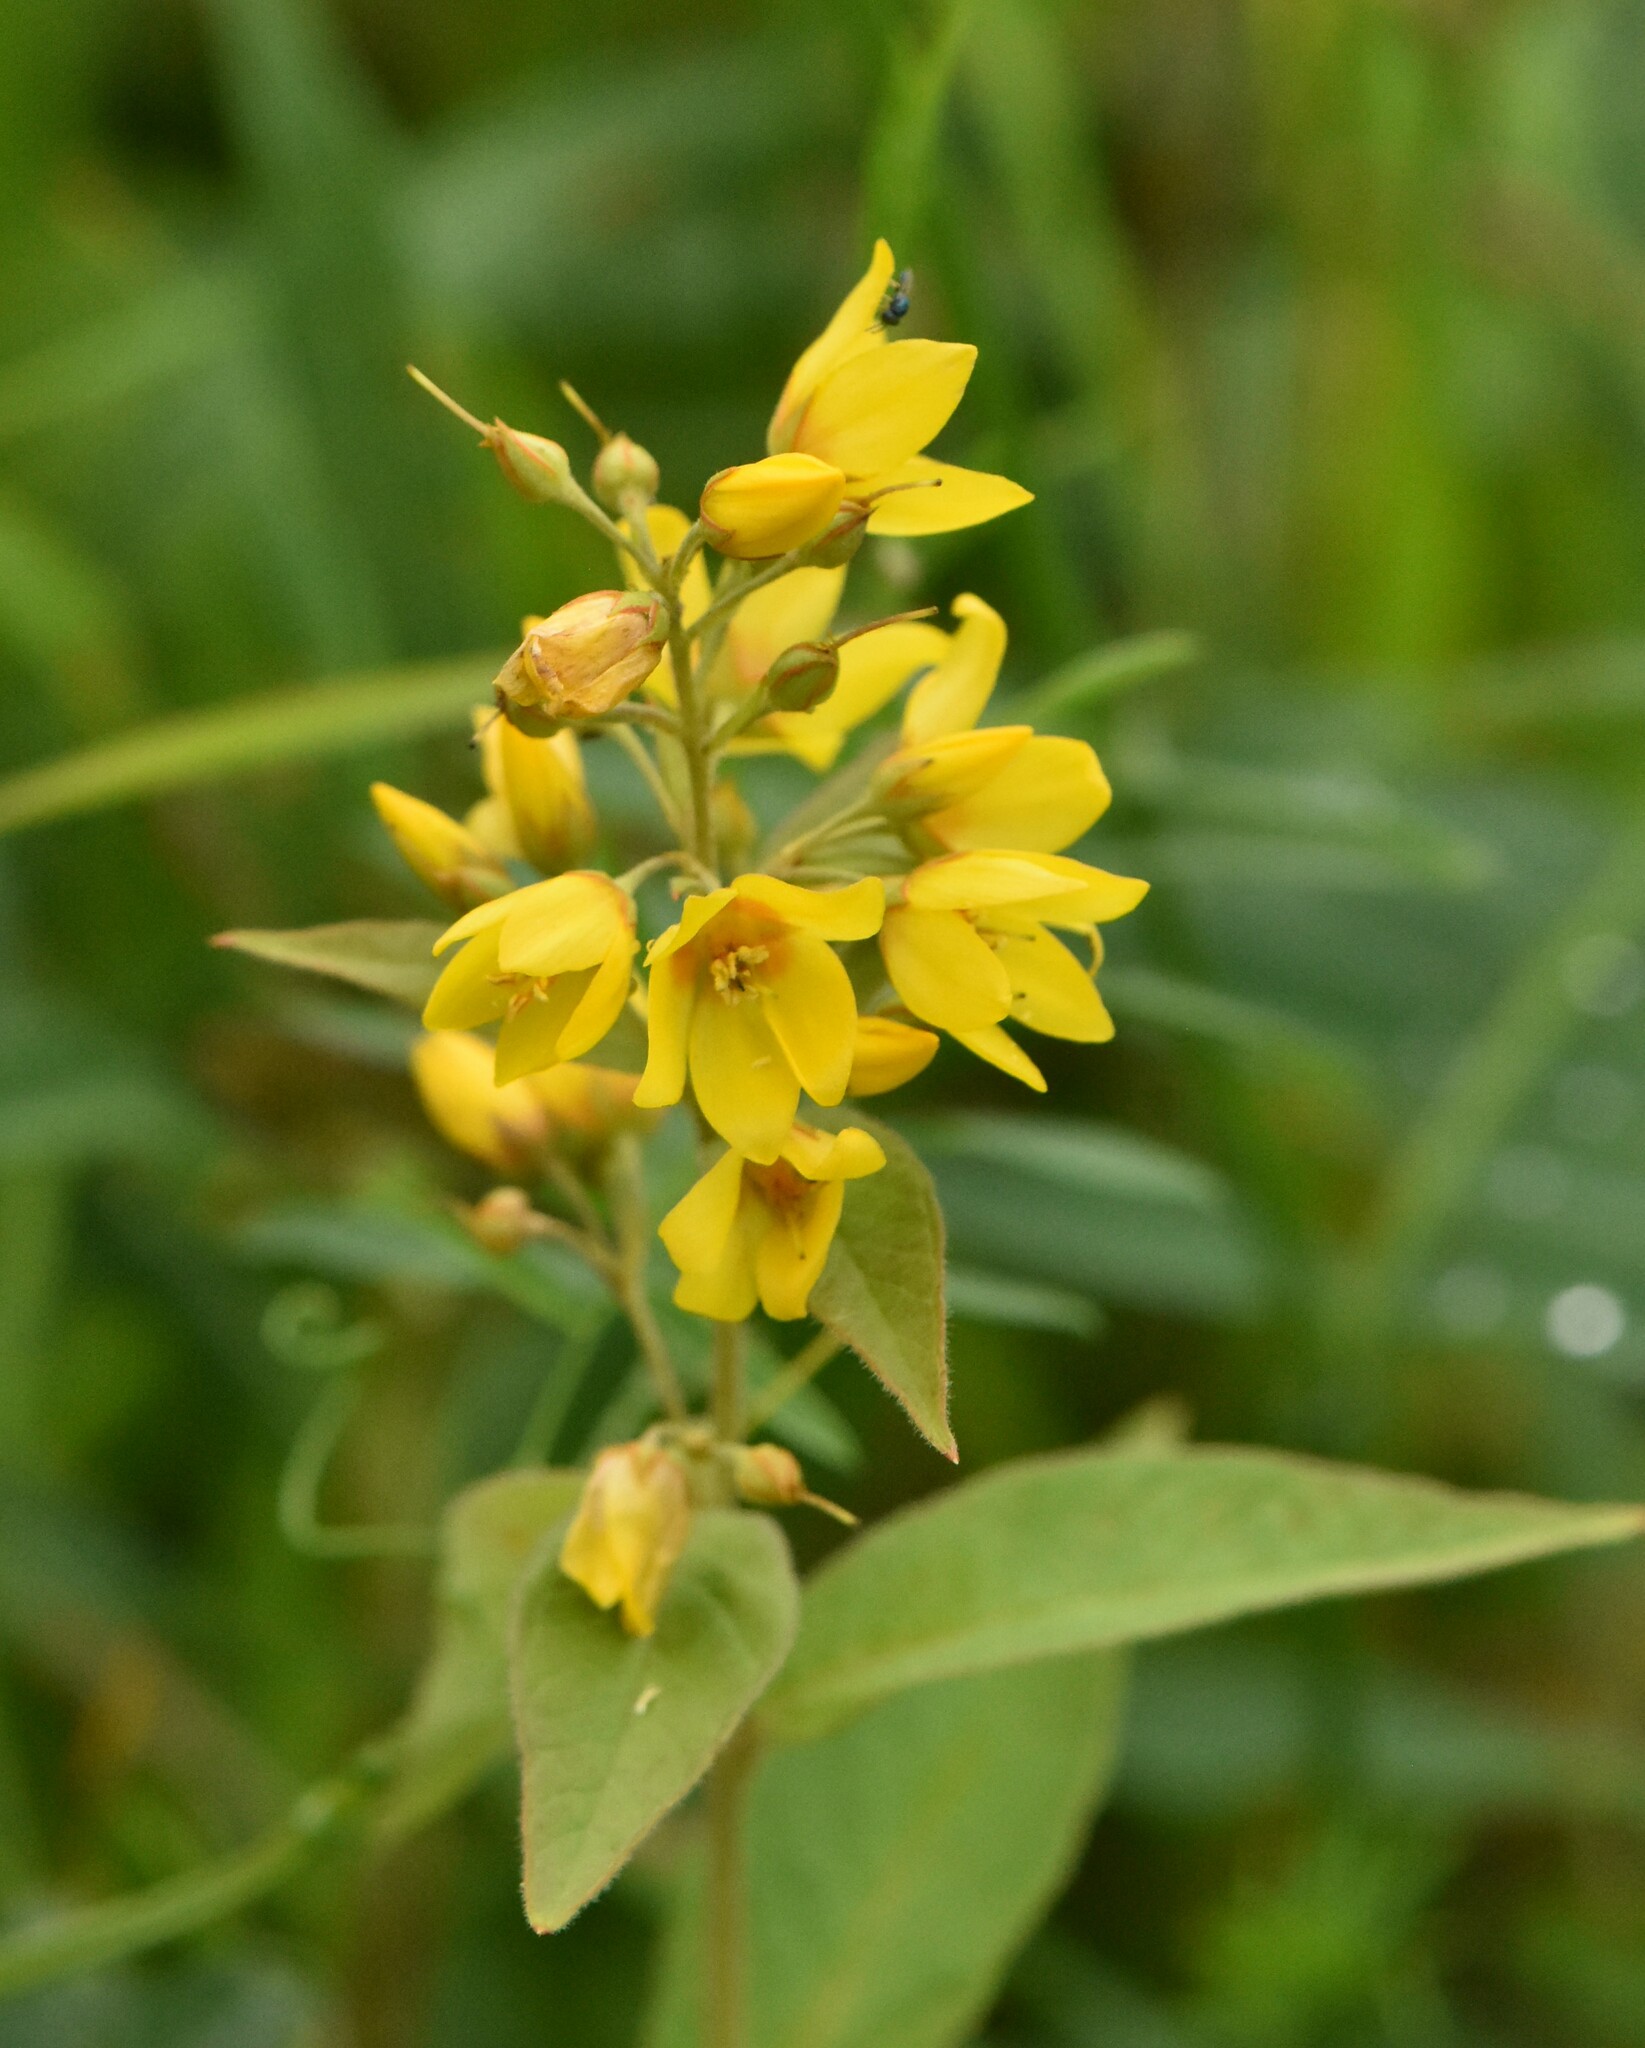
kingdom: Plantae
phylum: Tracheophyta
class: Magnoliopsida
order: Ericales
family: Primulaceae
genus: Lysimachia
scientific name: Lysimachia vulgaris
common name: Yellow loosestrife
